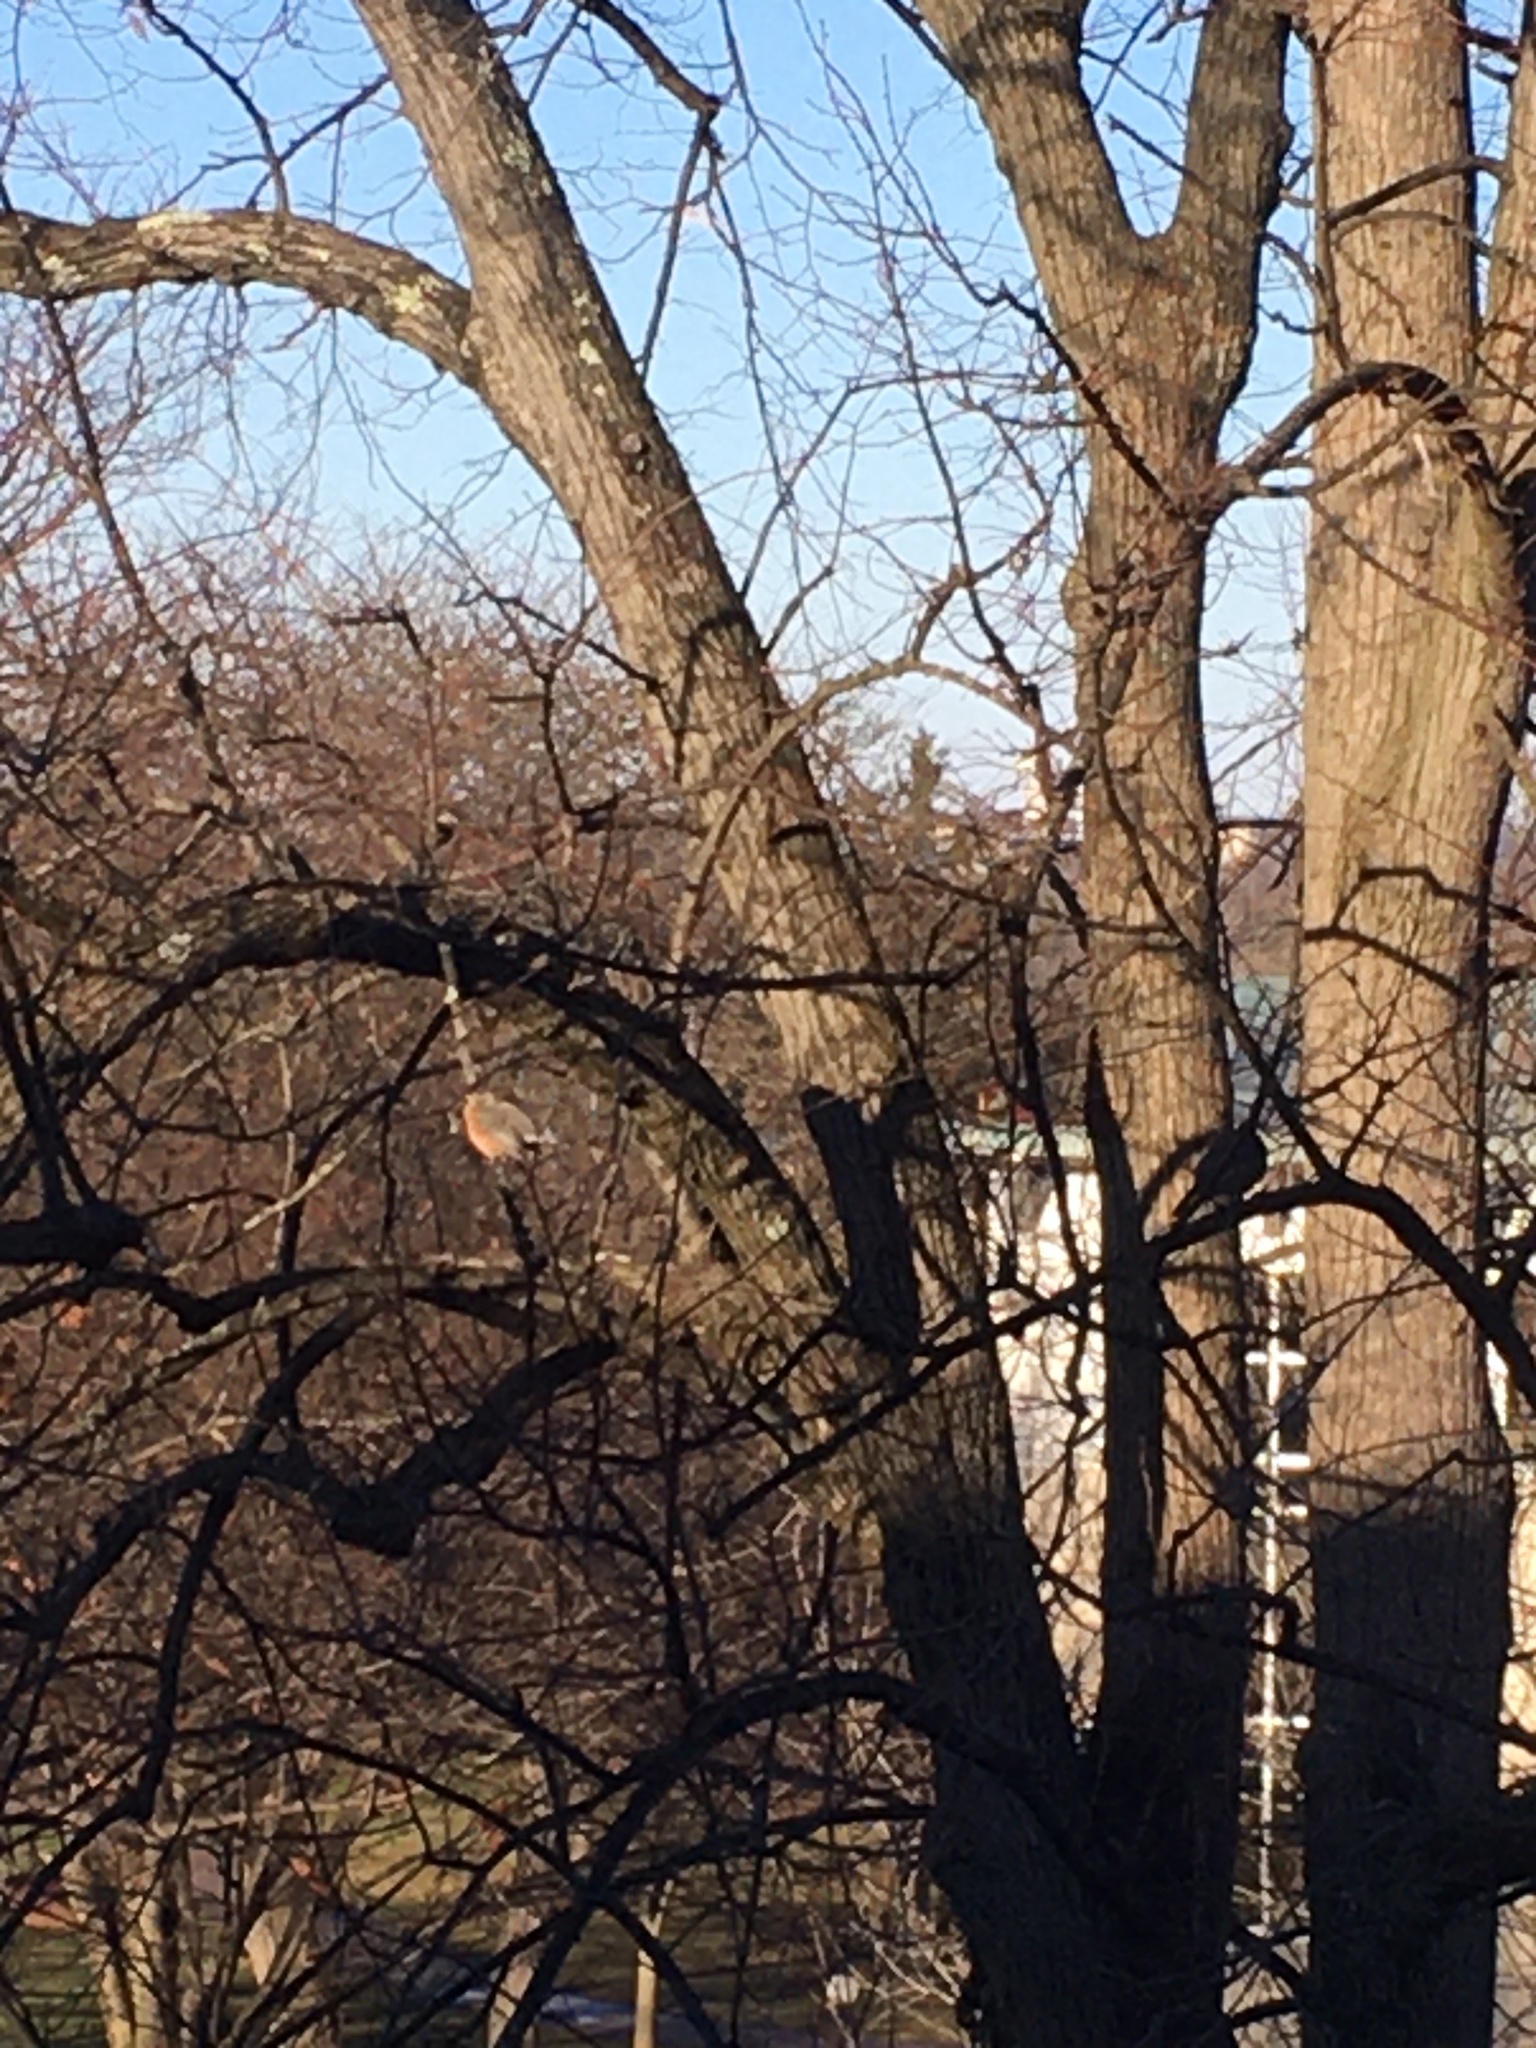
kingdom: Animalia
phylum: Chordata
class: Aves
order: Passeriformes
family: Turdidae
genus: Turdus
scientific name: Turdus migratorius
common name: American robin
